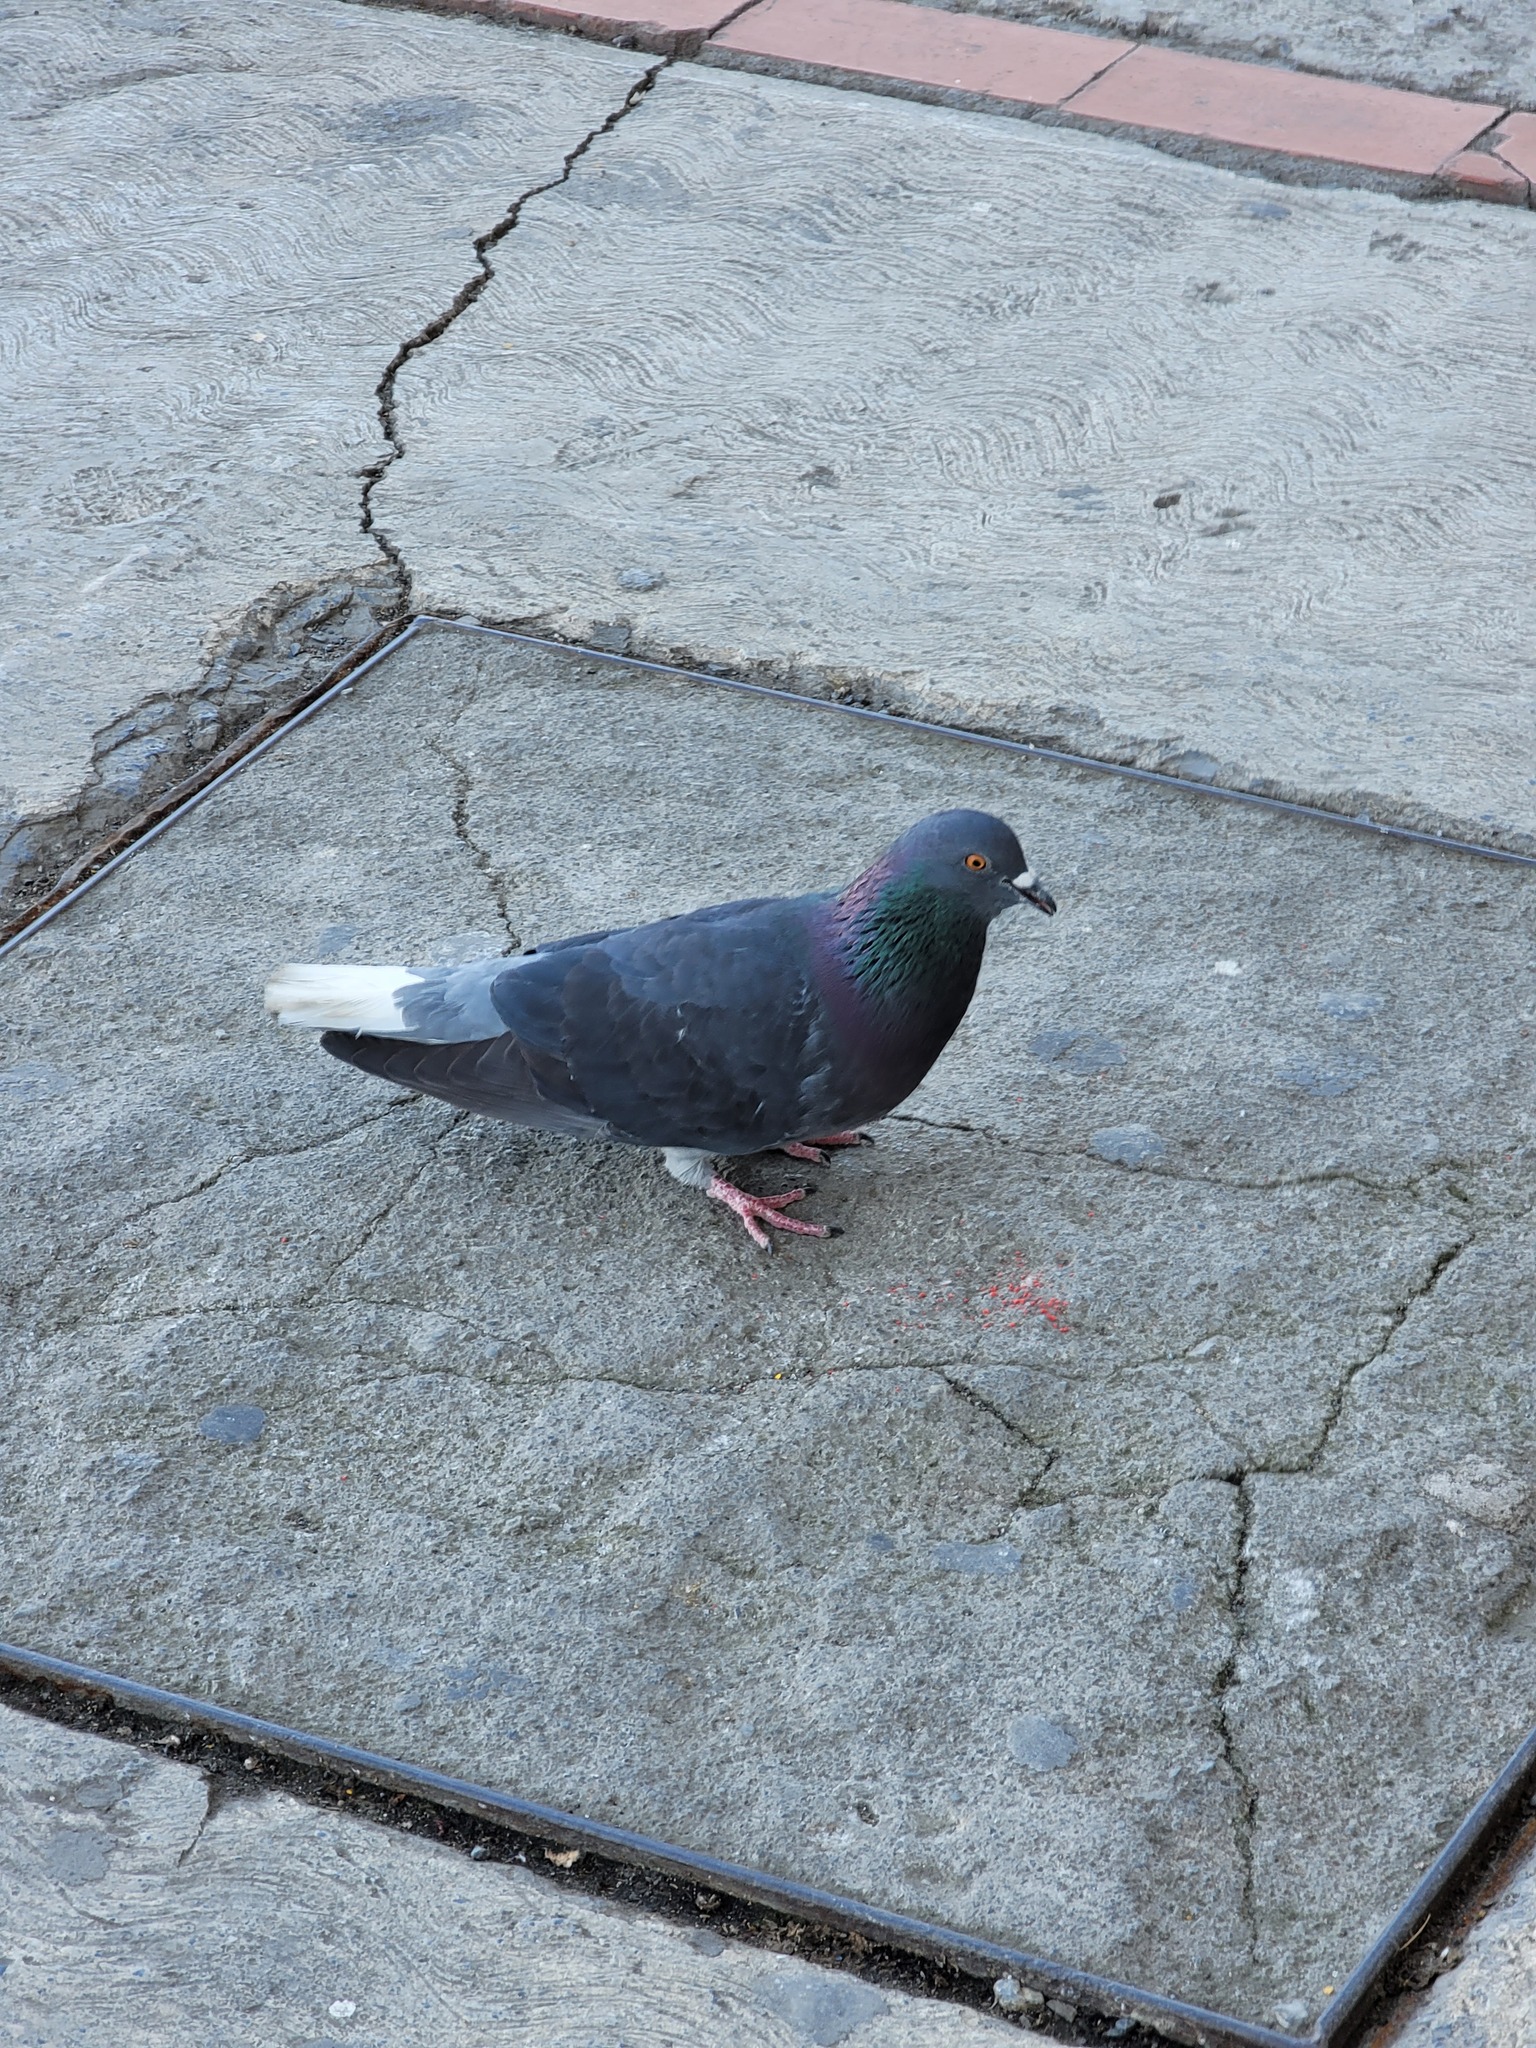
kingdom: Animalia
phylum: Chordata
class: Aves
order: Columbiformes
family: Columbidae
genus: Columba
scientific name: Columba livia
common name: Rock pigeon
